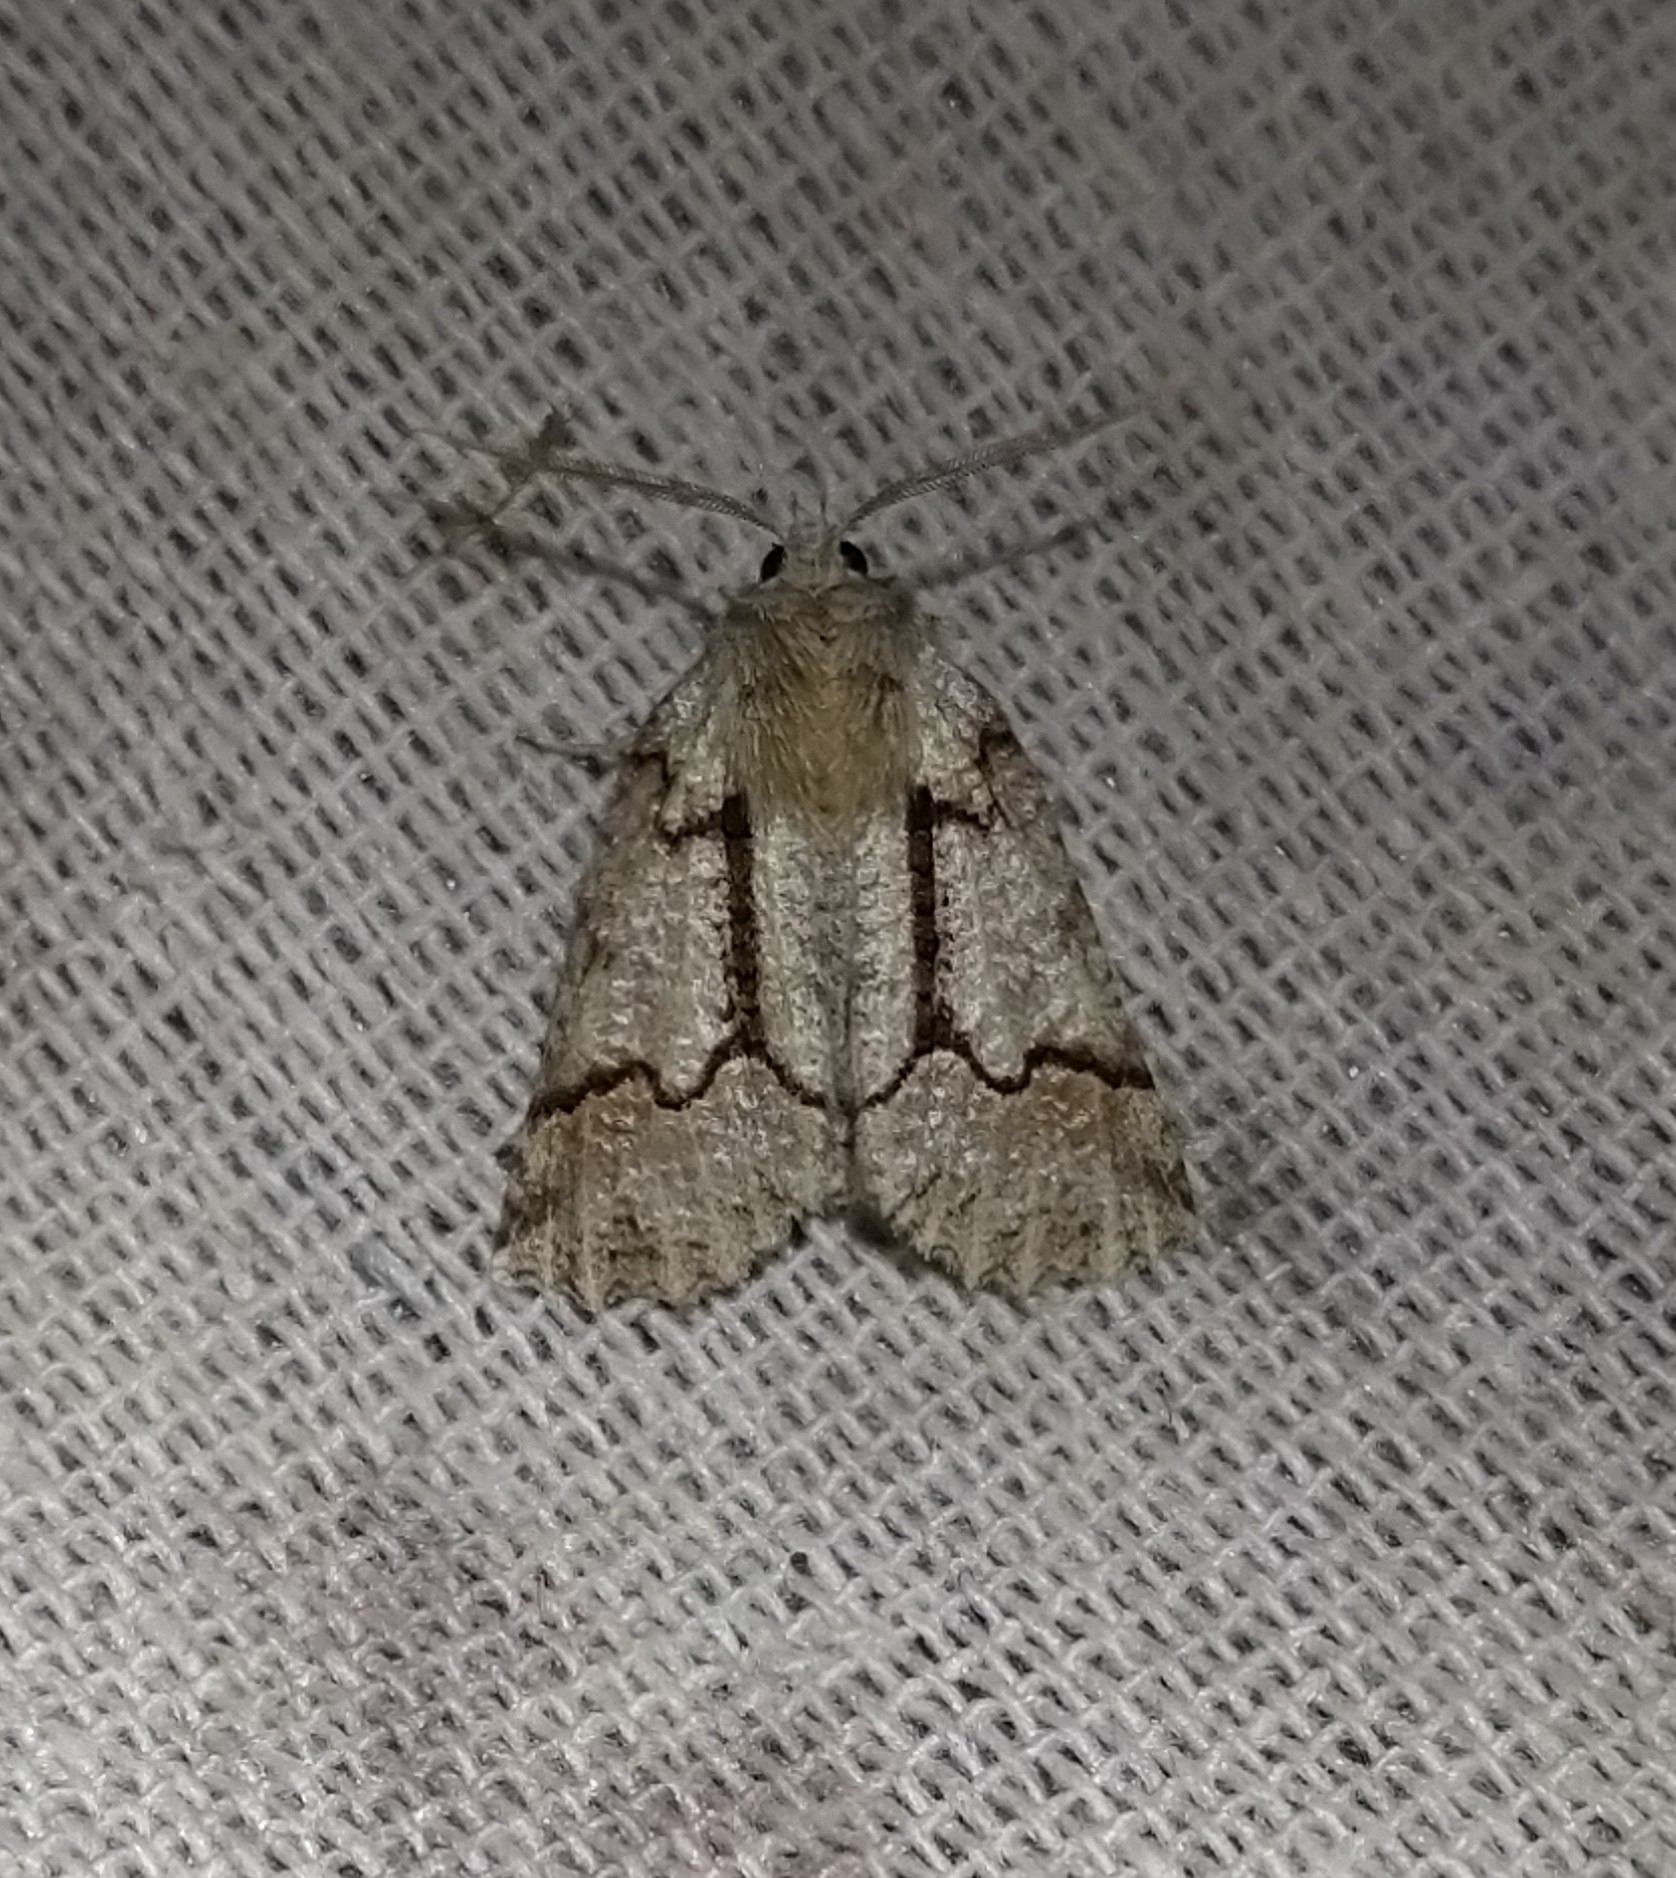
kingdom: Animalia
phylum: Arthropoda
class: Insecta
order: Lepidoptera
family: Geometridae
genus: Declana
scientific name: Declana floccosa
